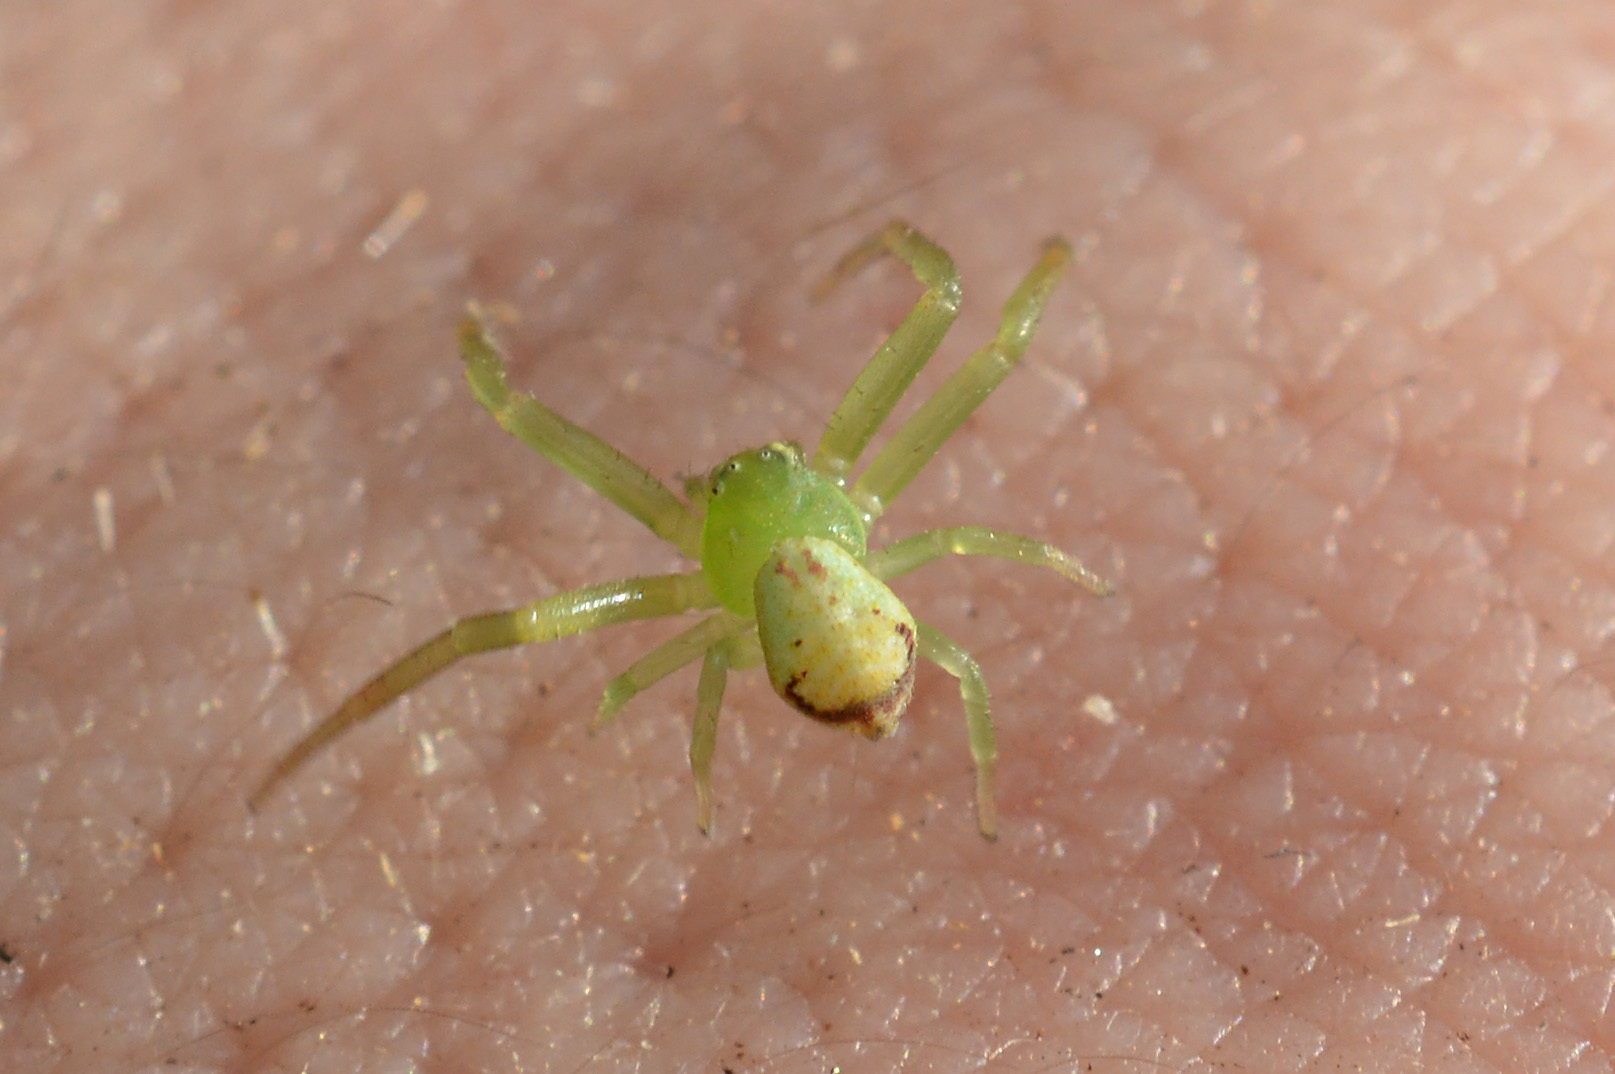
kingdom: Animalia
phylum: Arthropoda
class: Arachnida
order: Araneae
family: Thomisidae
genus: Ebrechtella
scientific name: Ebrechtella tricuspidata
